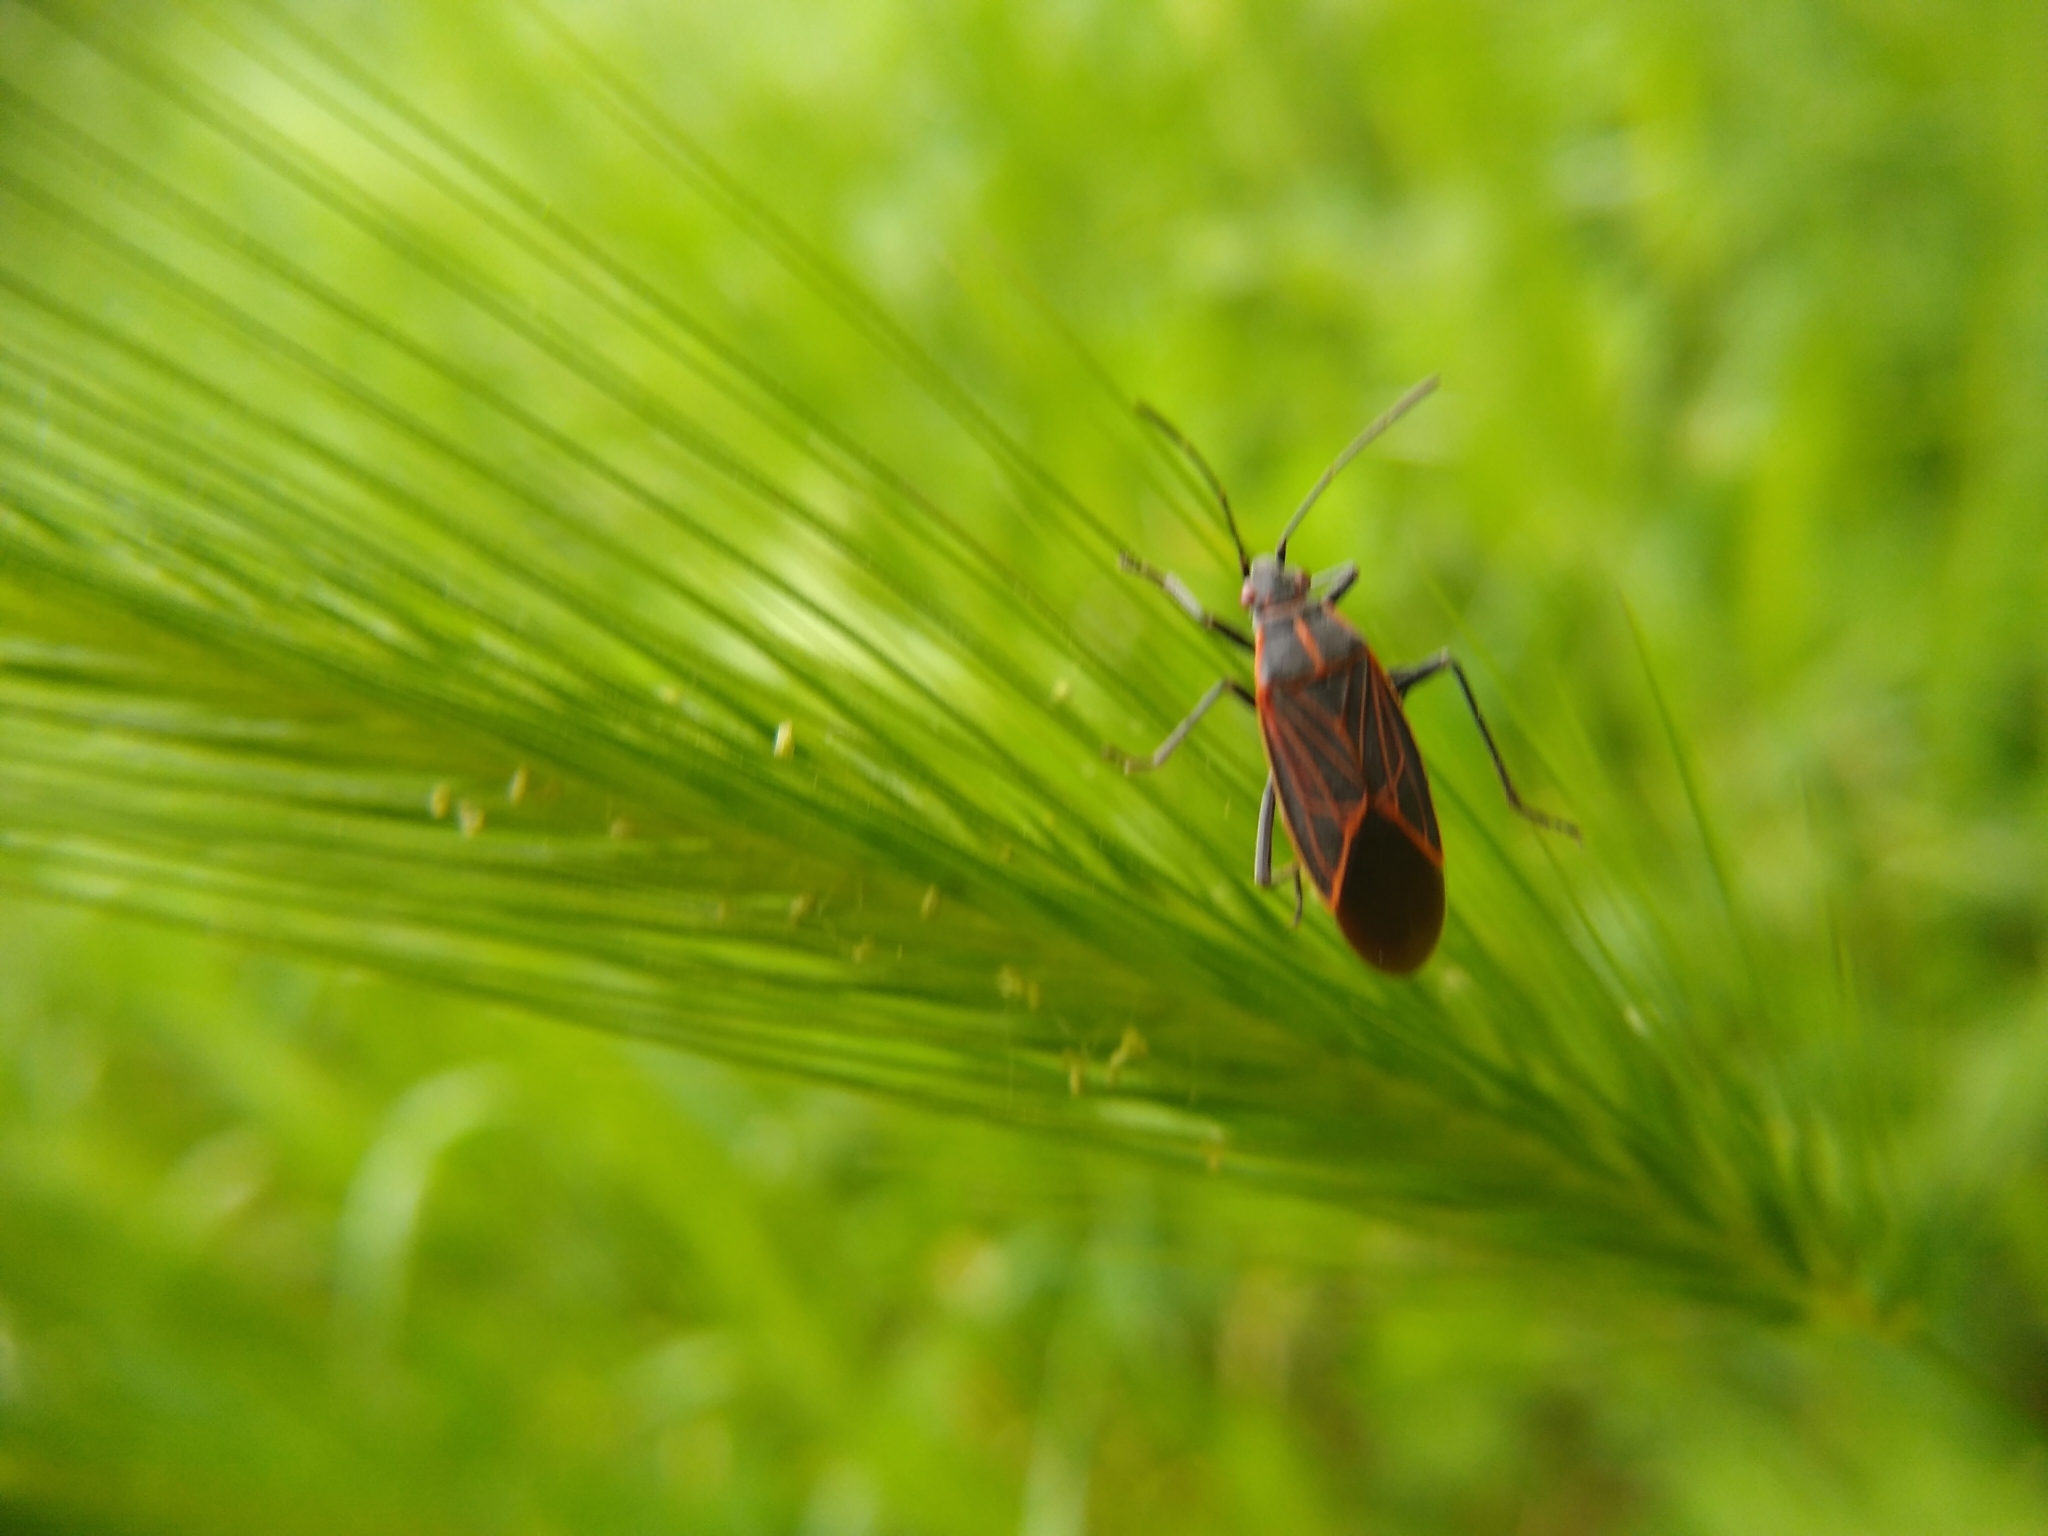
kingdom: Animalia
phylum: Arthropoda
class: Insecta
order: Hemiptera
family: Rhopalidae
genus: Boisea
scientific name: Boisea rubrolineata
